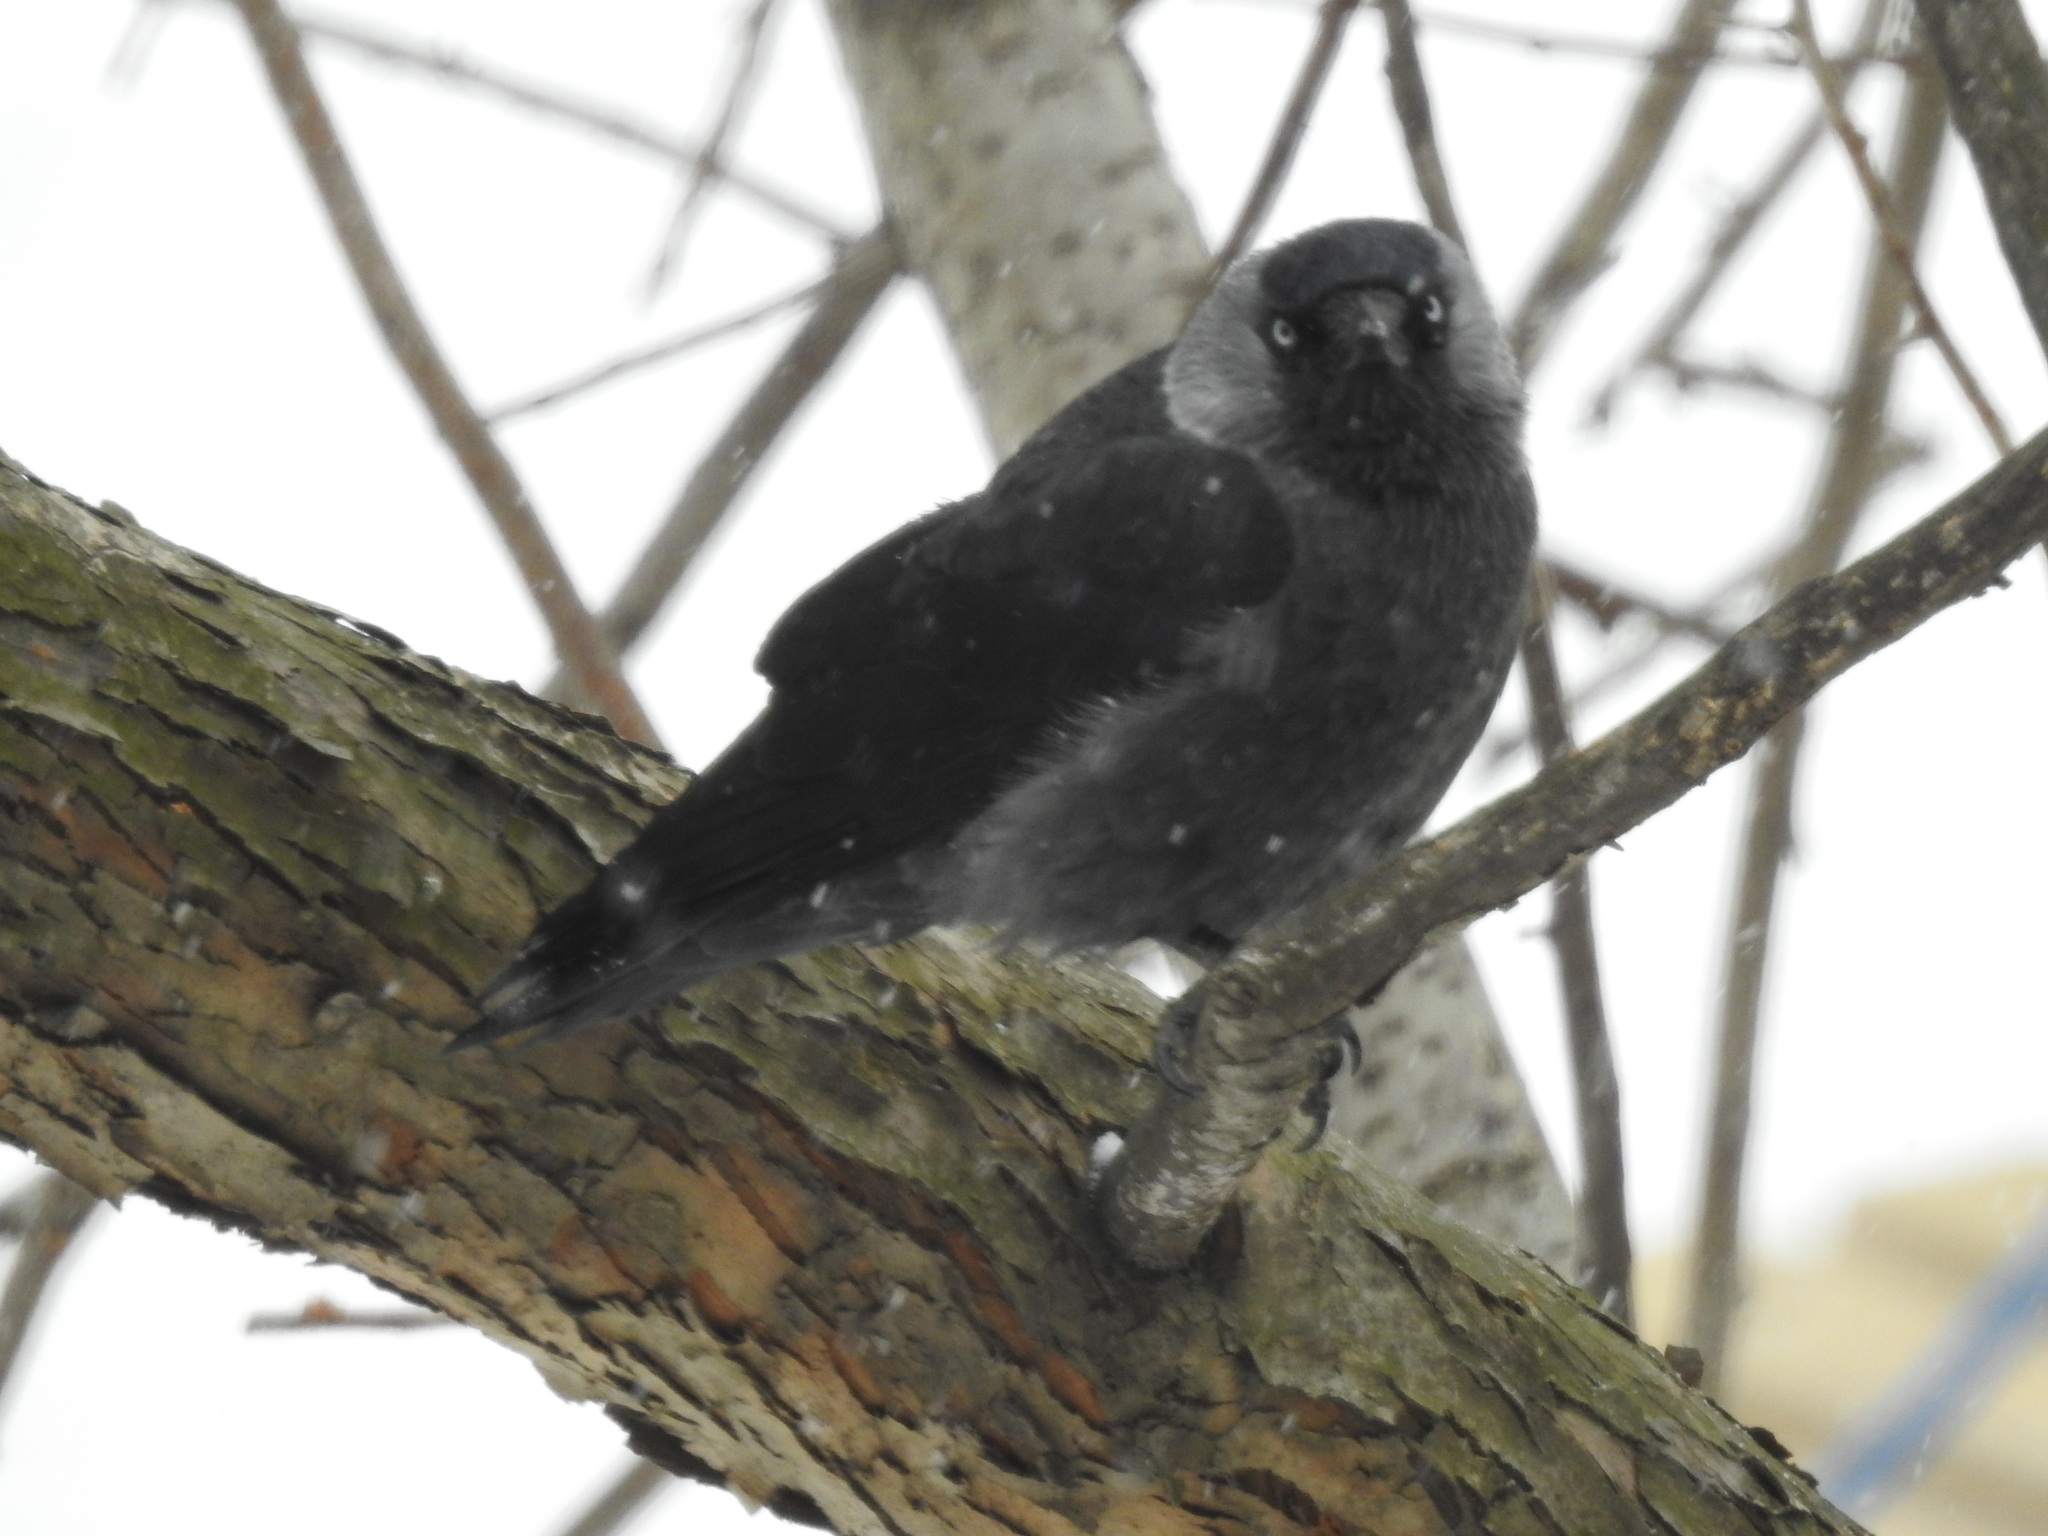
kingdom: Animalia
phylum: Chordata
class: Aves
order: Passeriformes
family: Corvidae
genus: Coloeus
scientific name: Coloeus monedula
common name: Western jackdaw
